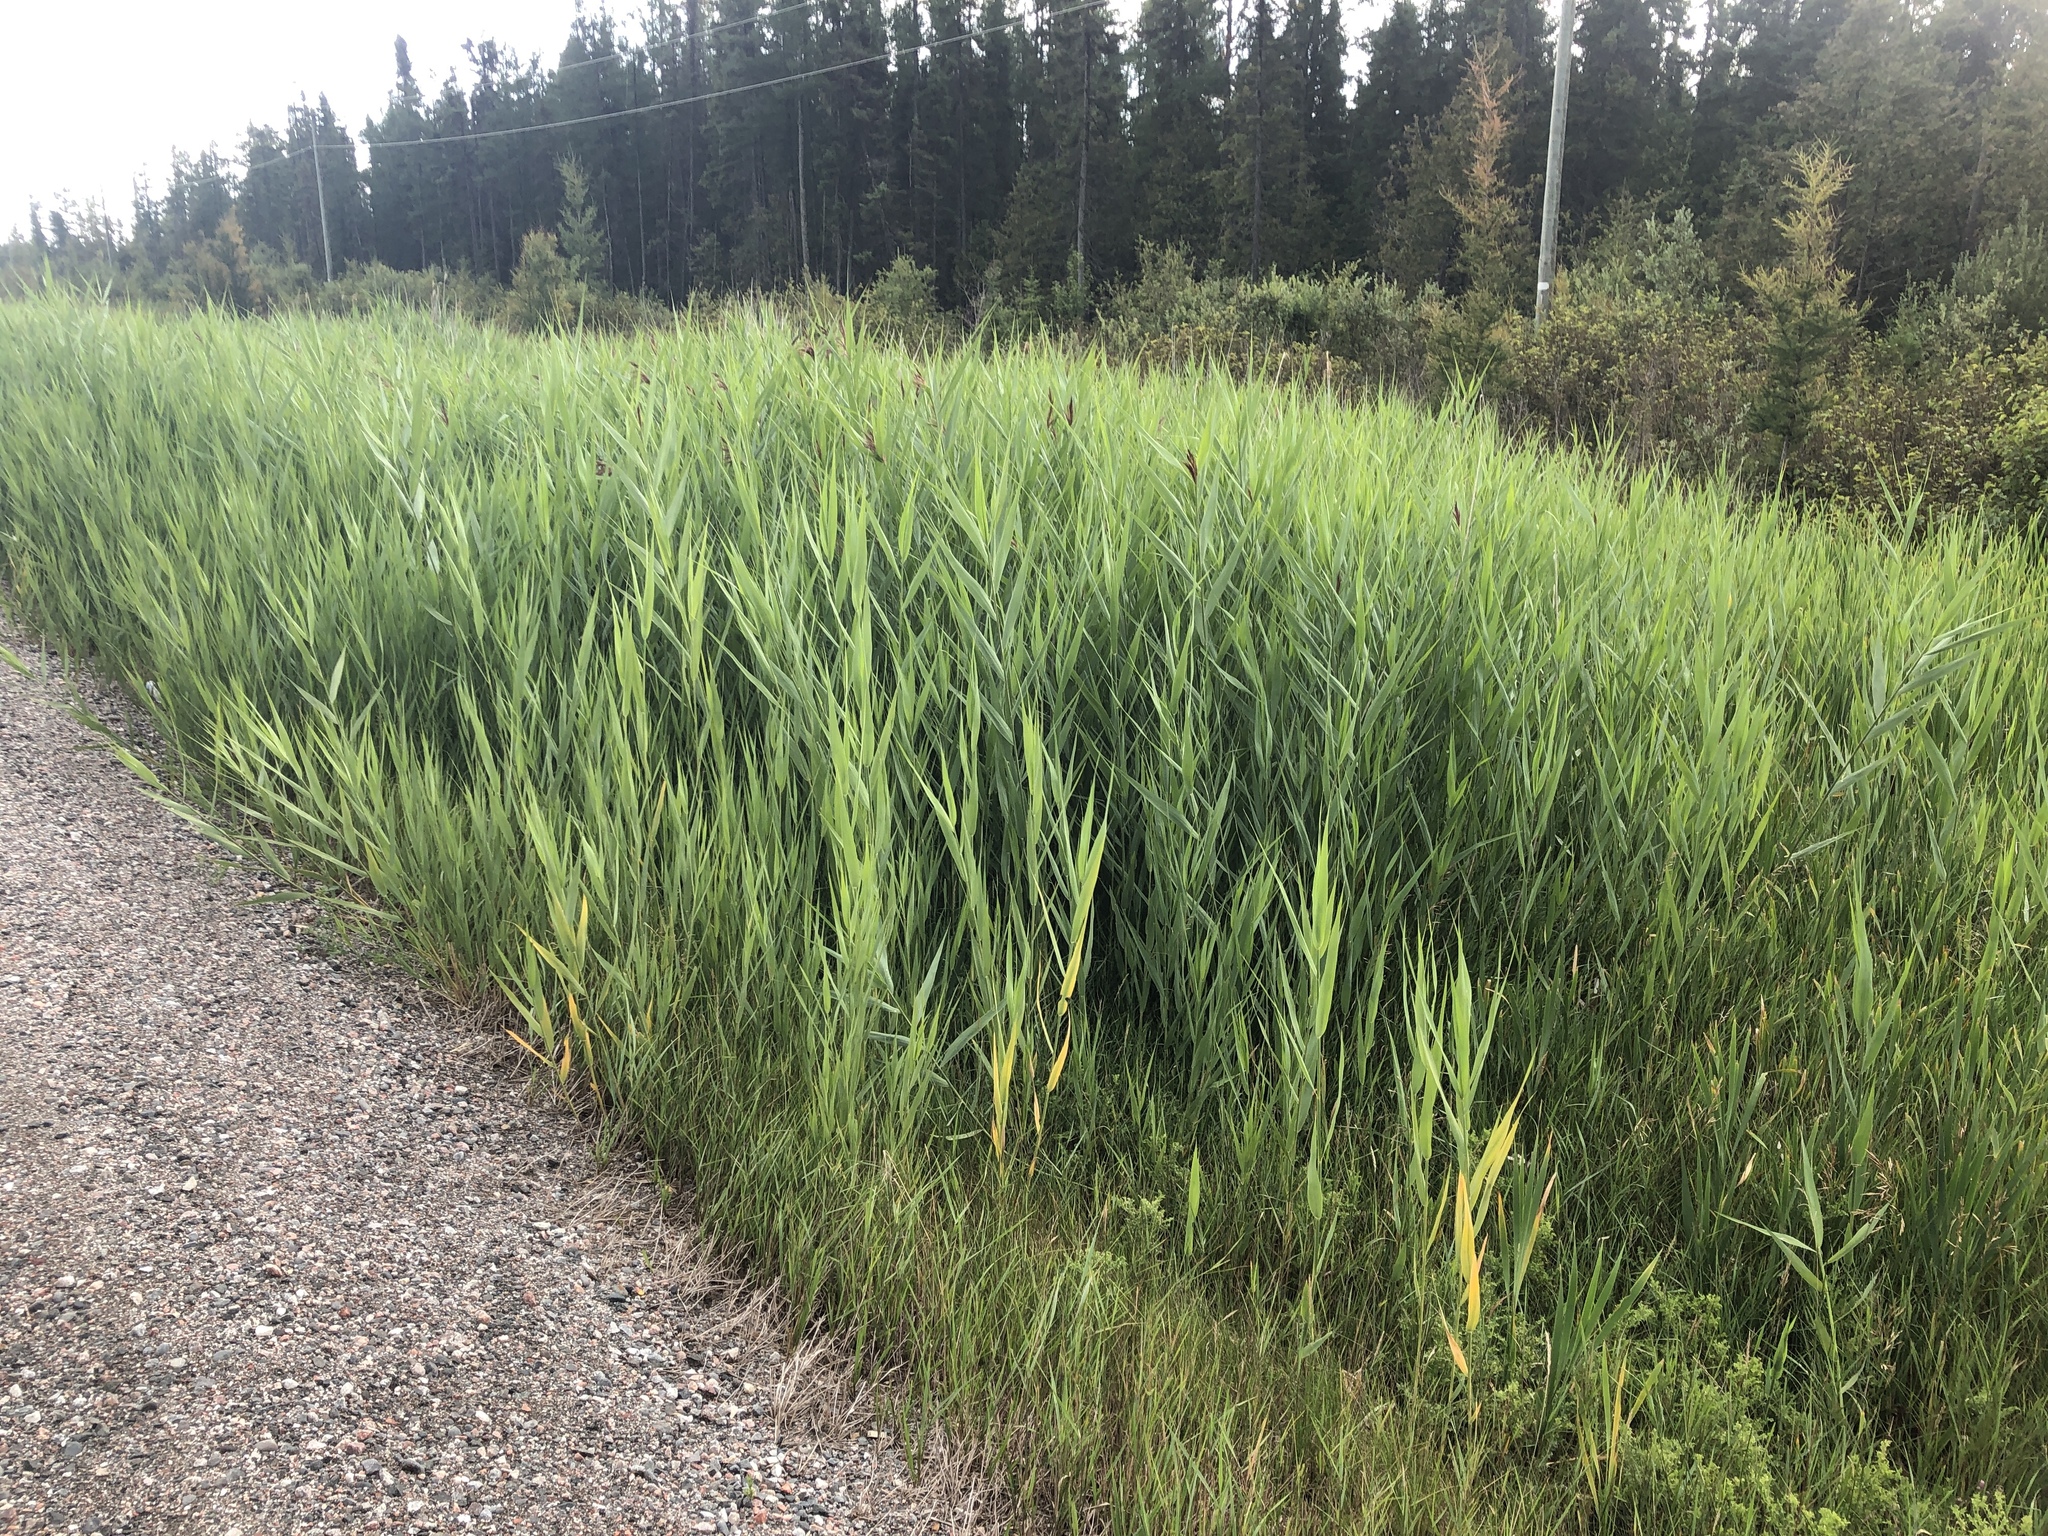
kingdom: Plantae
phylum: Tracheophyta
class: Liliopsida
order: Poales
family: Poaceae
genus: Phragmites
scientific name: Phragmites australis
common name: Common reed
